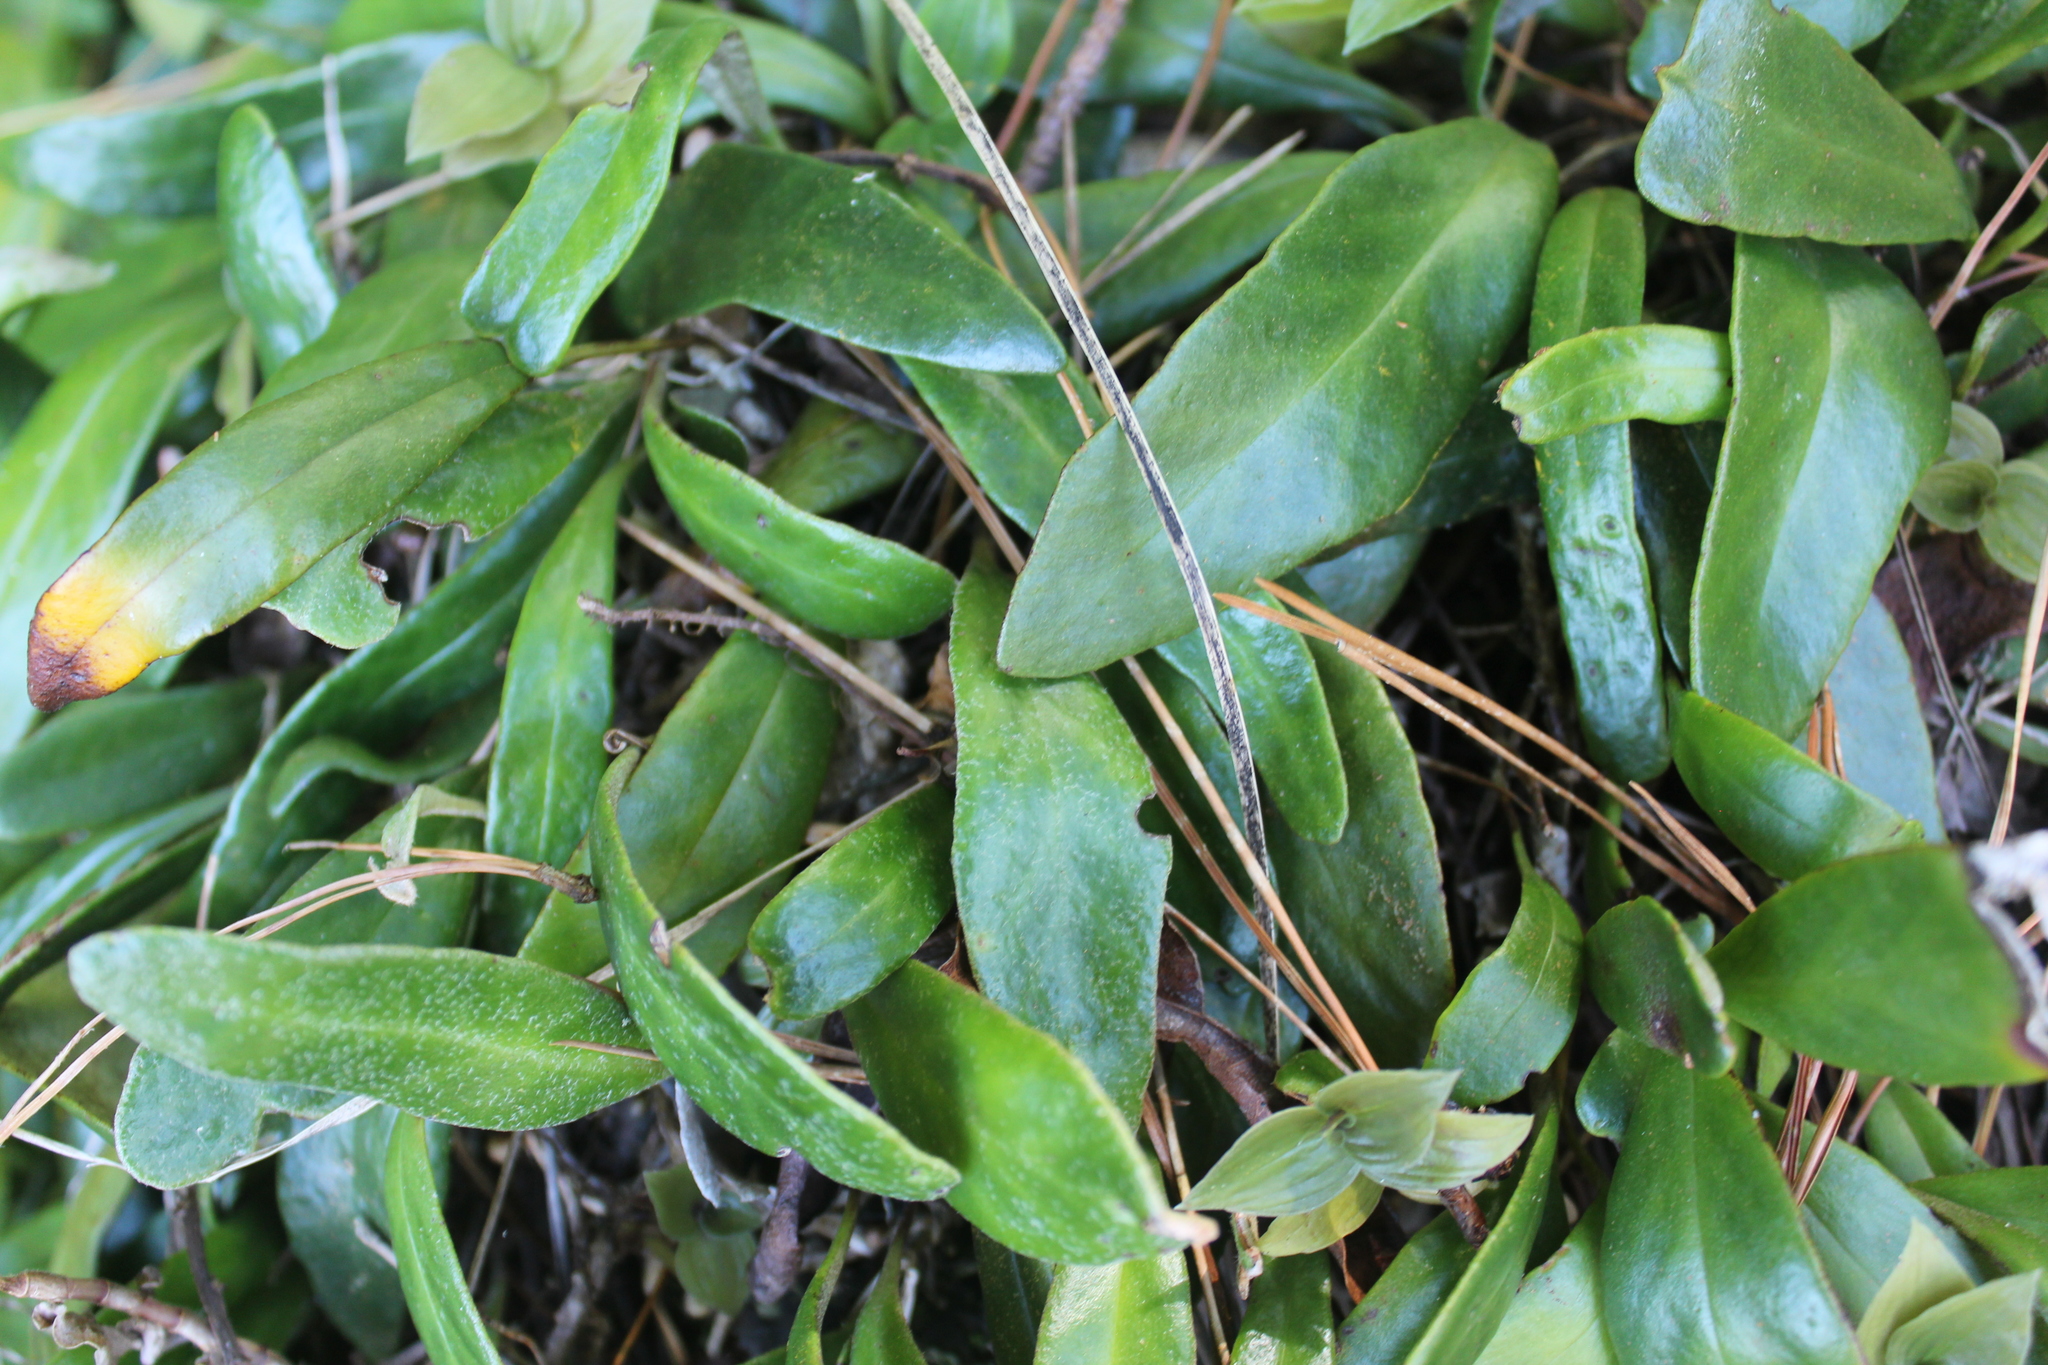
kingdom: Plantae
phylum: Tracheophyta
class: Polypodiopsida
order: Polypodiales
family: Polypodiaceae
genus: Pyrrosia
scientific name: Pyrrosia eleagnifolia
